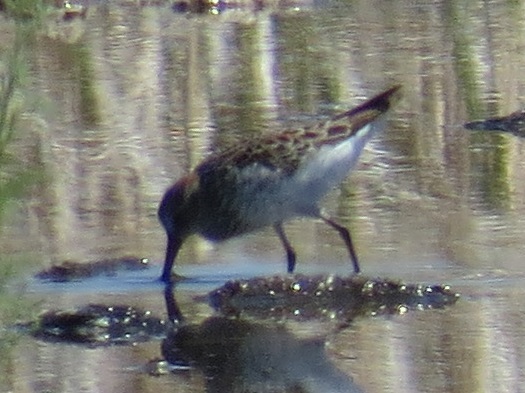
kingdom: Animalia
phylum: Chordata
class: Aves
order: Charadriiformes
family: Scolopacidae
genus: Calidris
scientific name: Calidris mauri
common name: Western sandpiper
